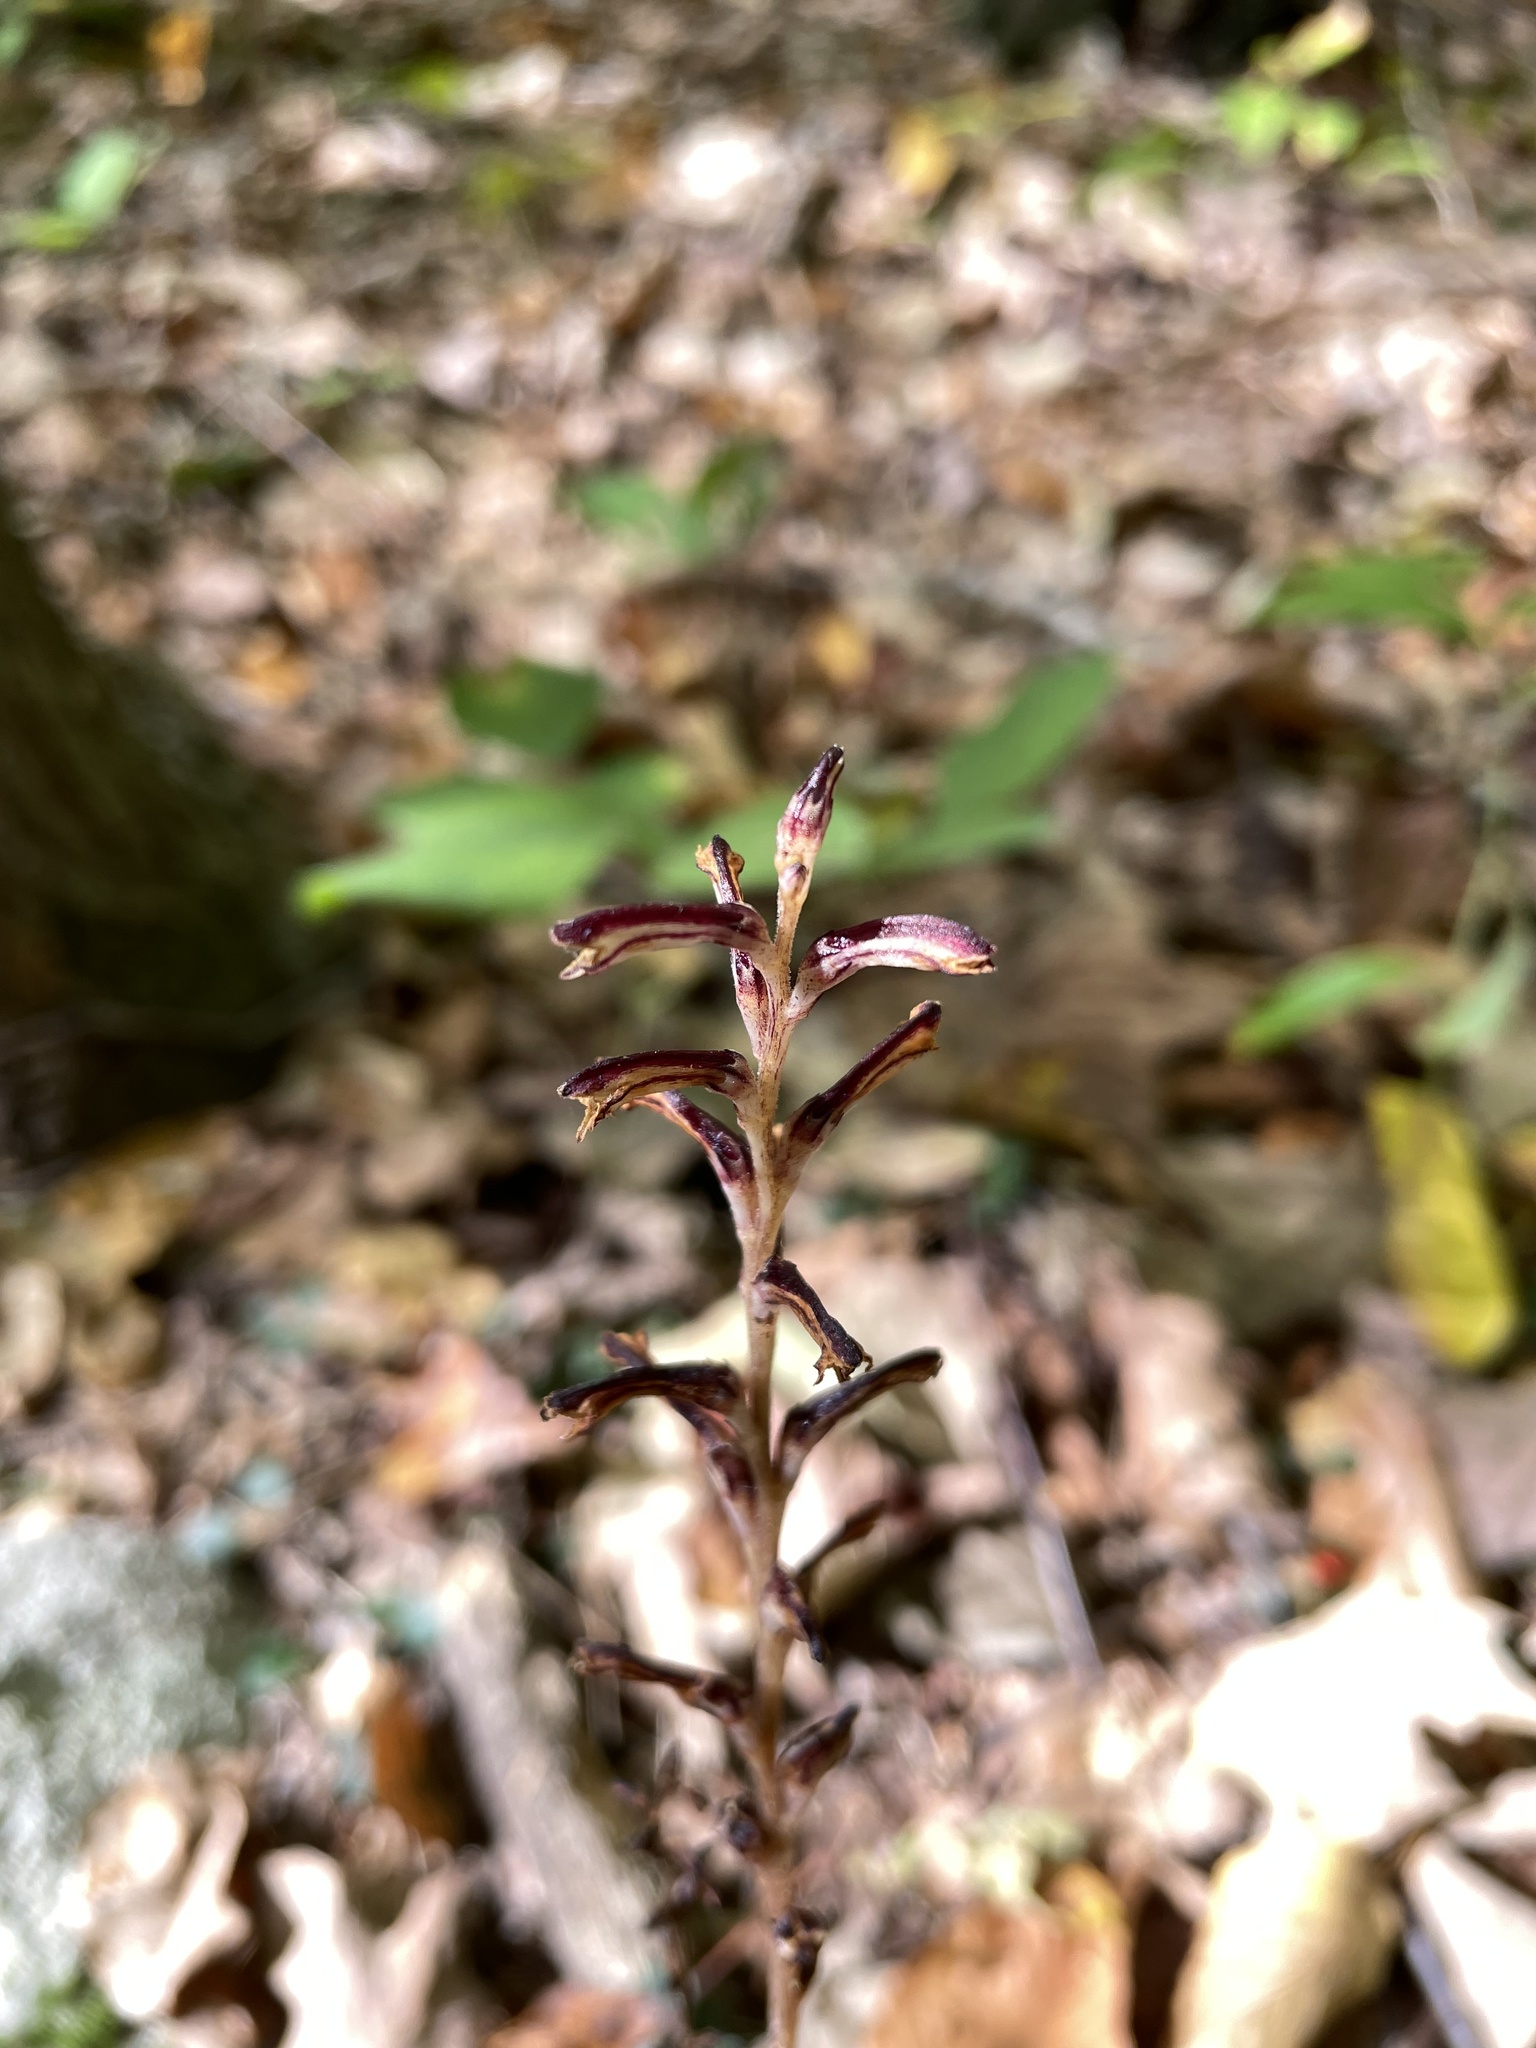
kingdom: Plantae
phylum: Tracheophyta
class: Magnoliopsida
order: Lamiales
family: Orobanchaceae
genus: Epifagus
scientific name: Epifagus virginiana
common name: Beechdrops
